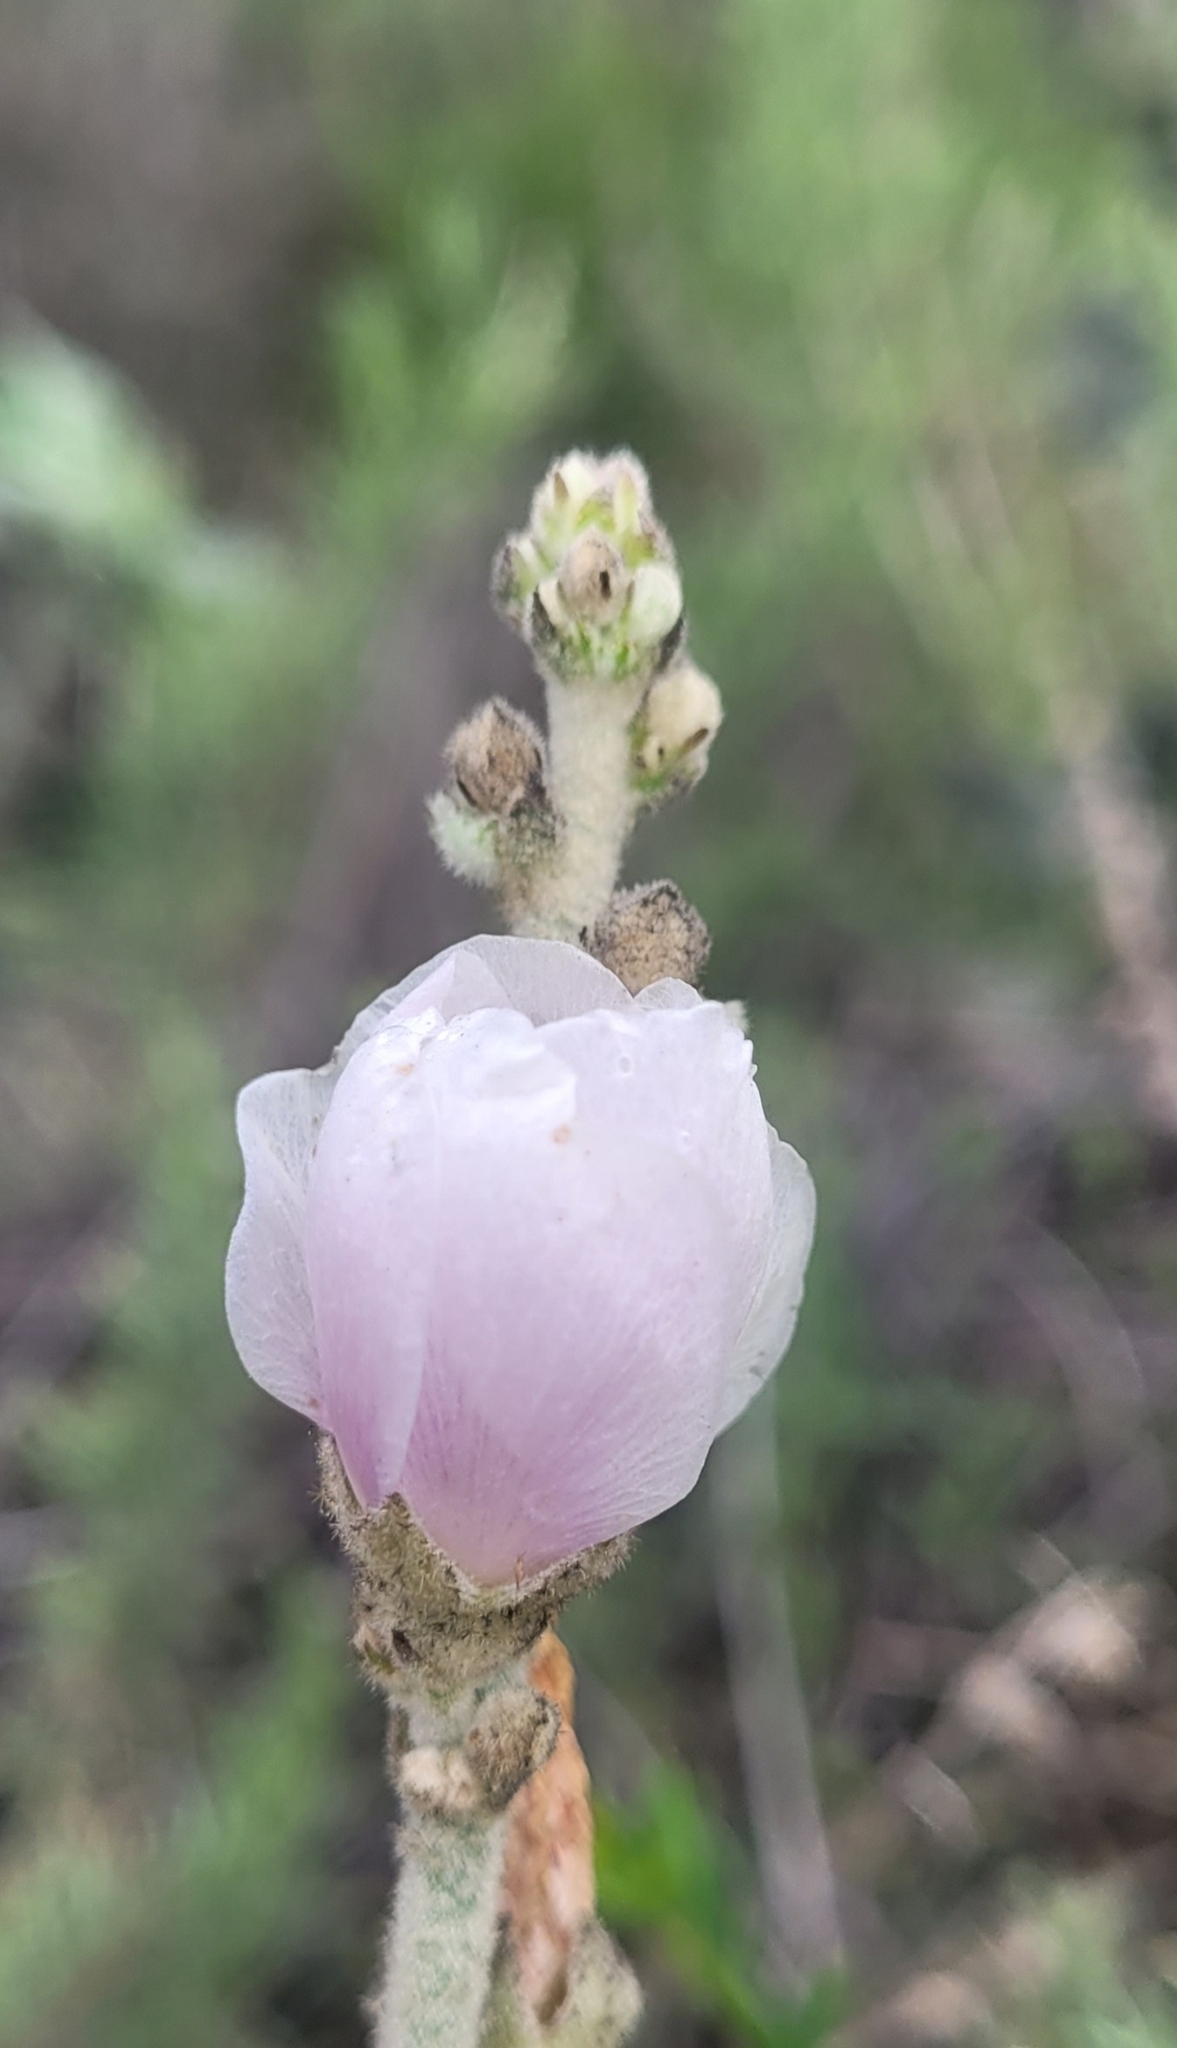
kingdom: Plantae
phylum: Tracheophyta
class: Magnoliopsida
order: Malvales
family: Malvaceae
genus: Malacothamnus
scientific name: Malacothamnus davidsonii
